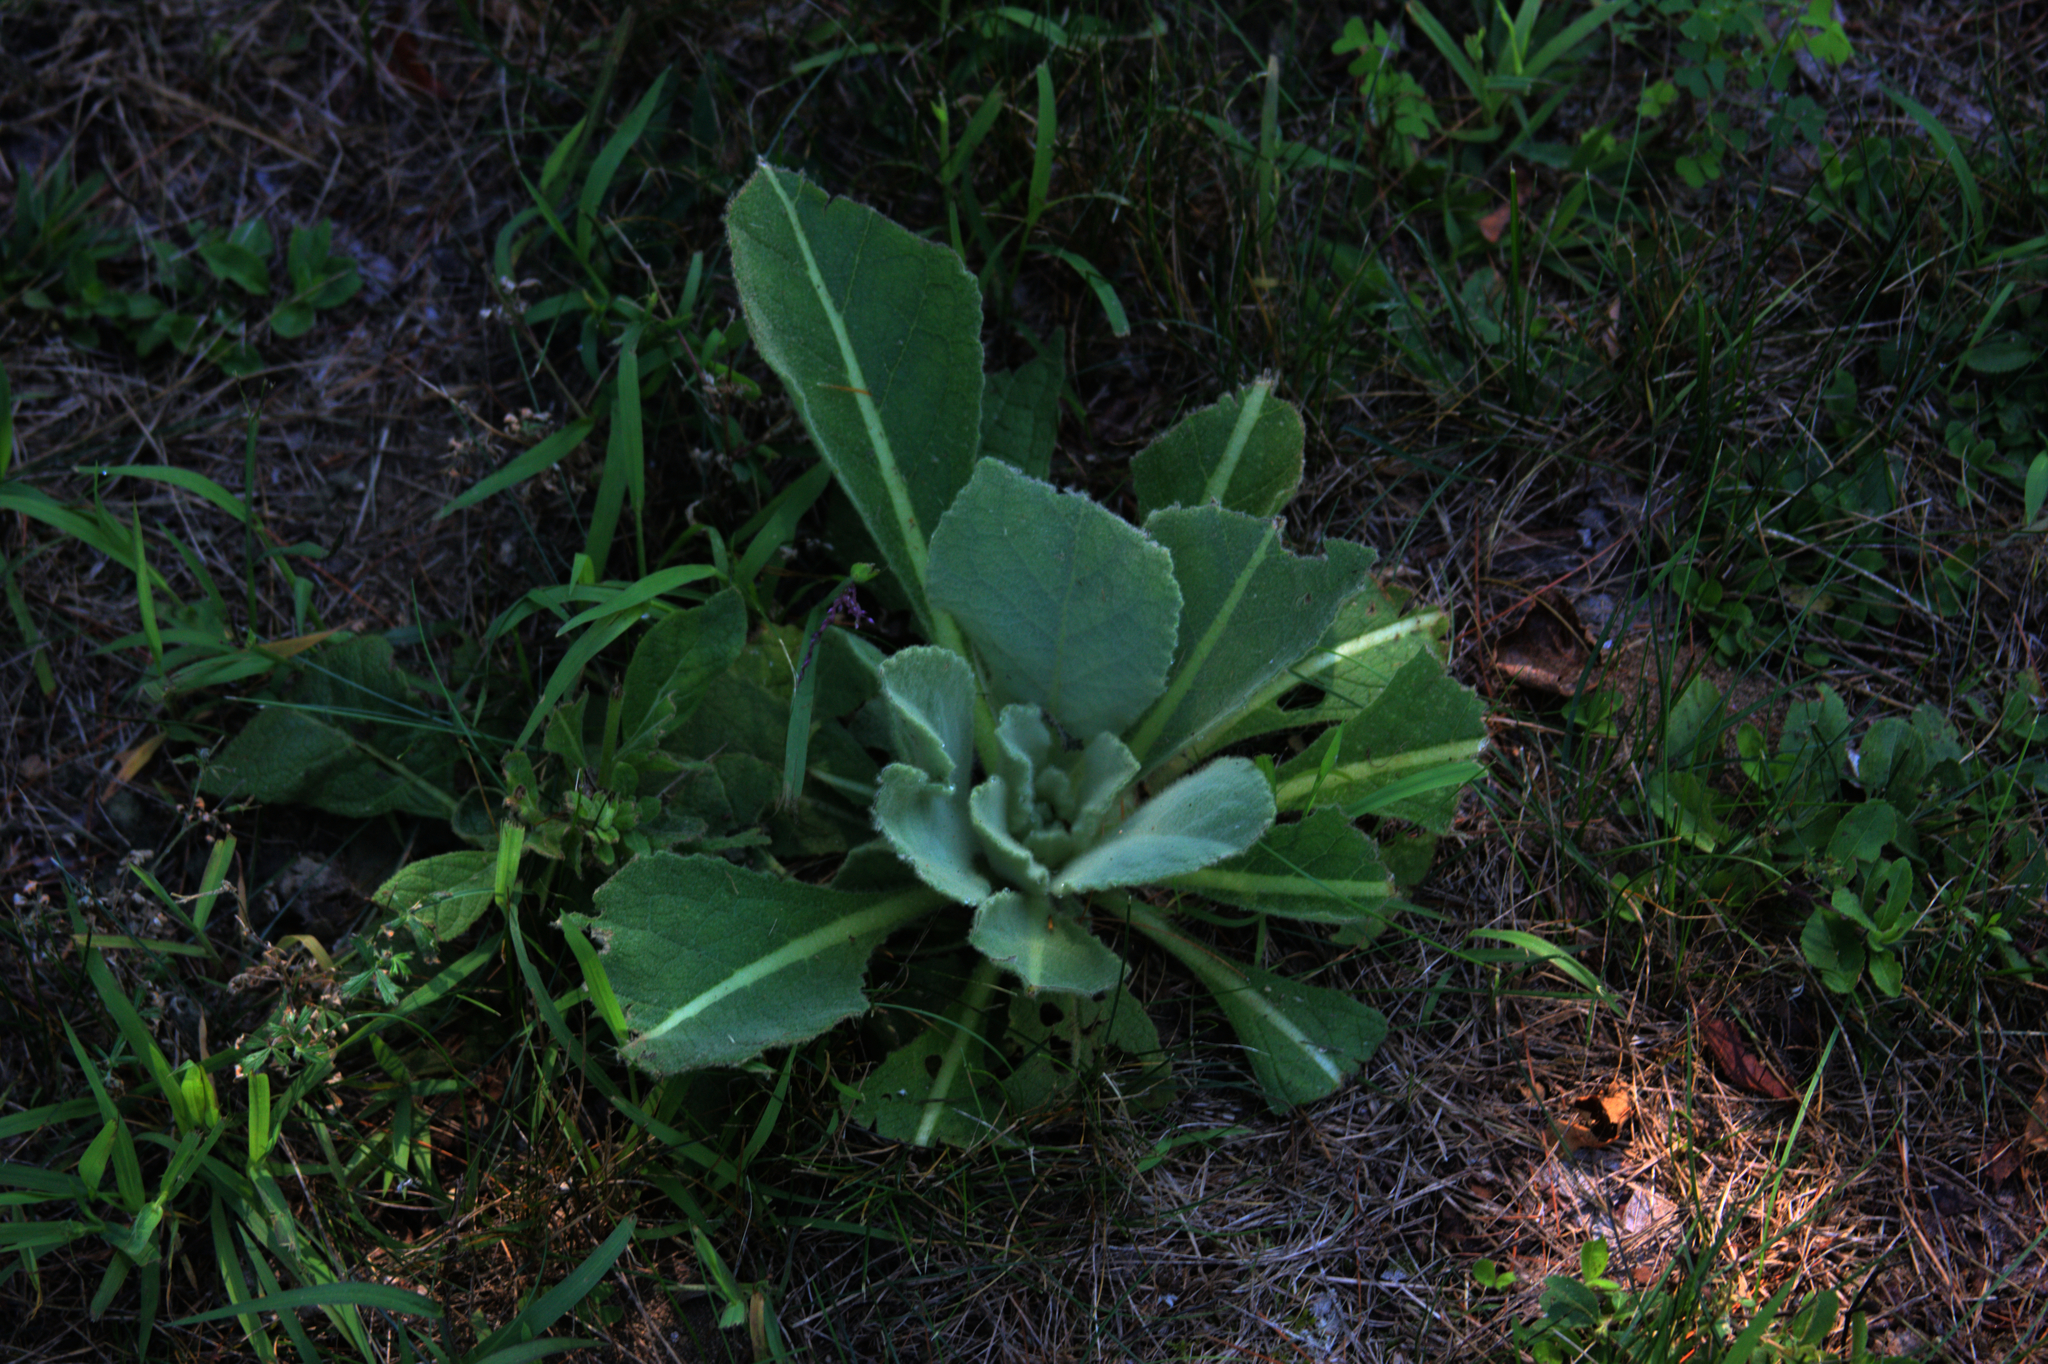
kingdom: Plantae
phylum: Tracheophyta
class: Magnoliopsida
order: Lamiales
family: Scrophulariaceae
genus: Verbascum
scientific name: Verbascum thapsus
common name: Common mullein
